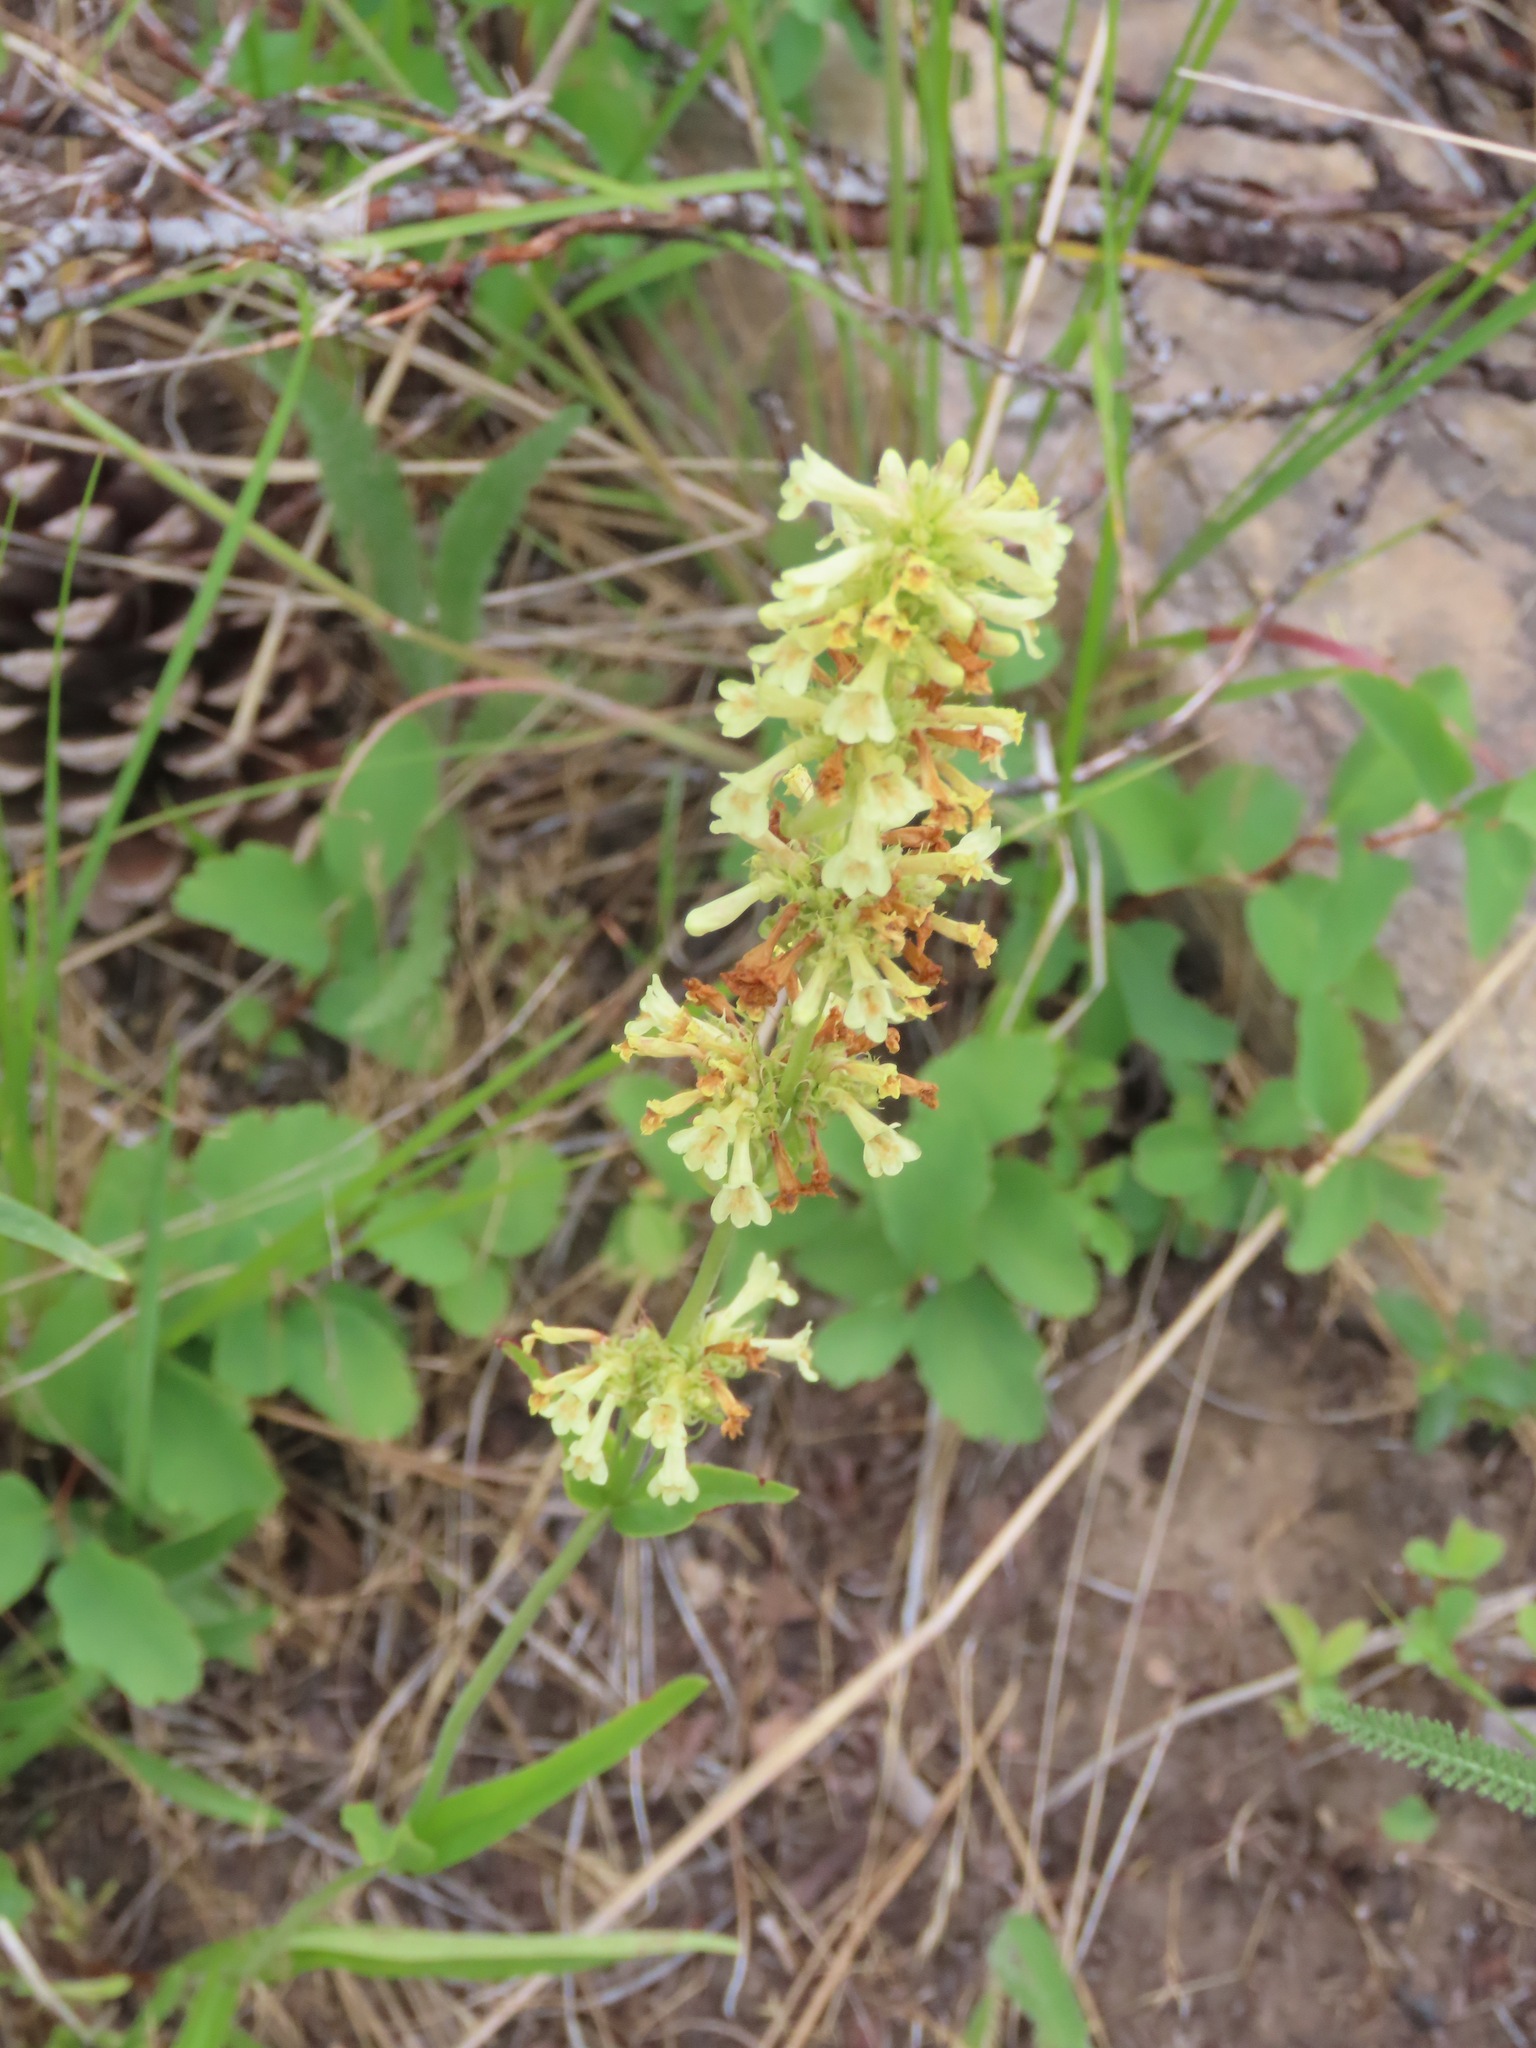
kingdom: Plantae
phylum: Tracheophyta
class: Magnoliopsida
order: Lamiales
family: Plantaginaceae
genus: Penstemon
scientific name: Penstemon confertus
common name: Lesser yellow beardtongue
